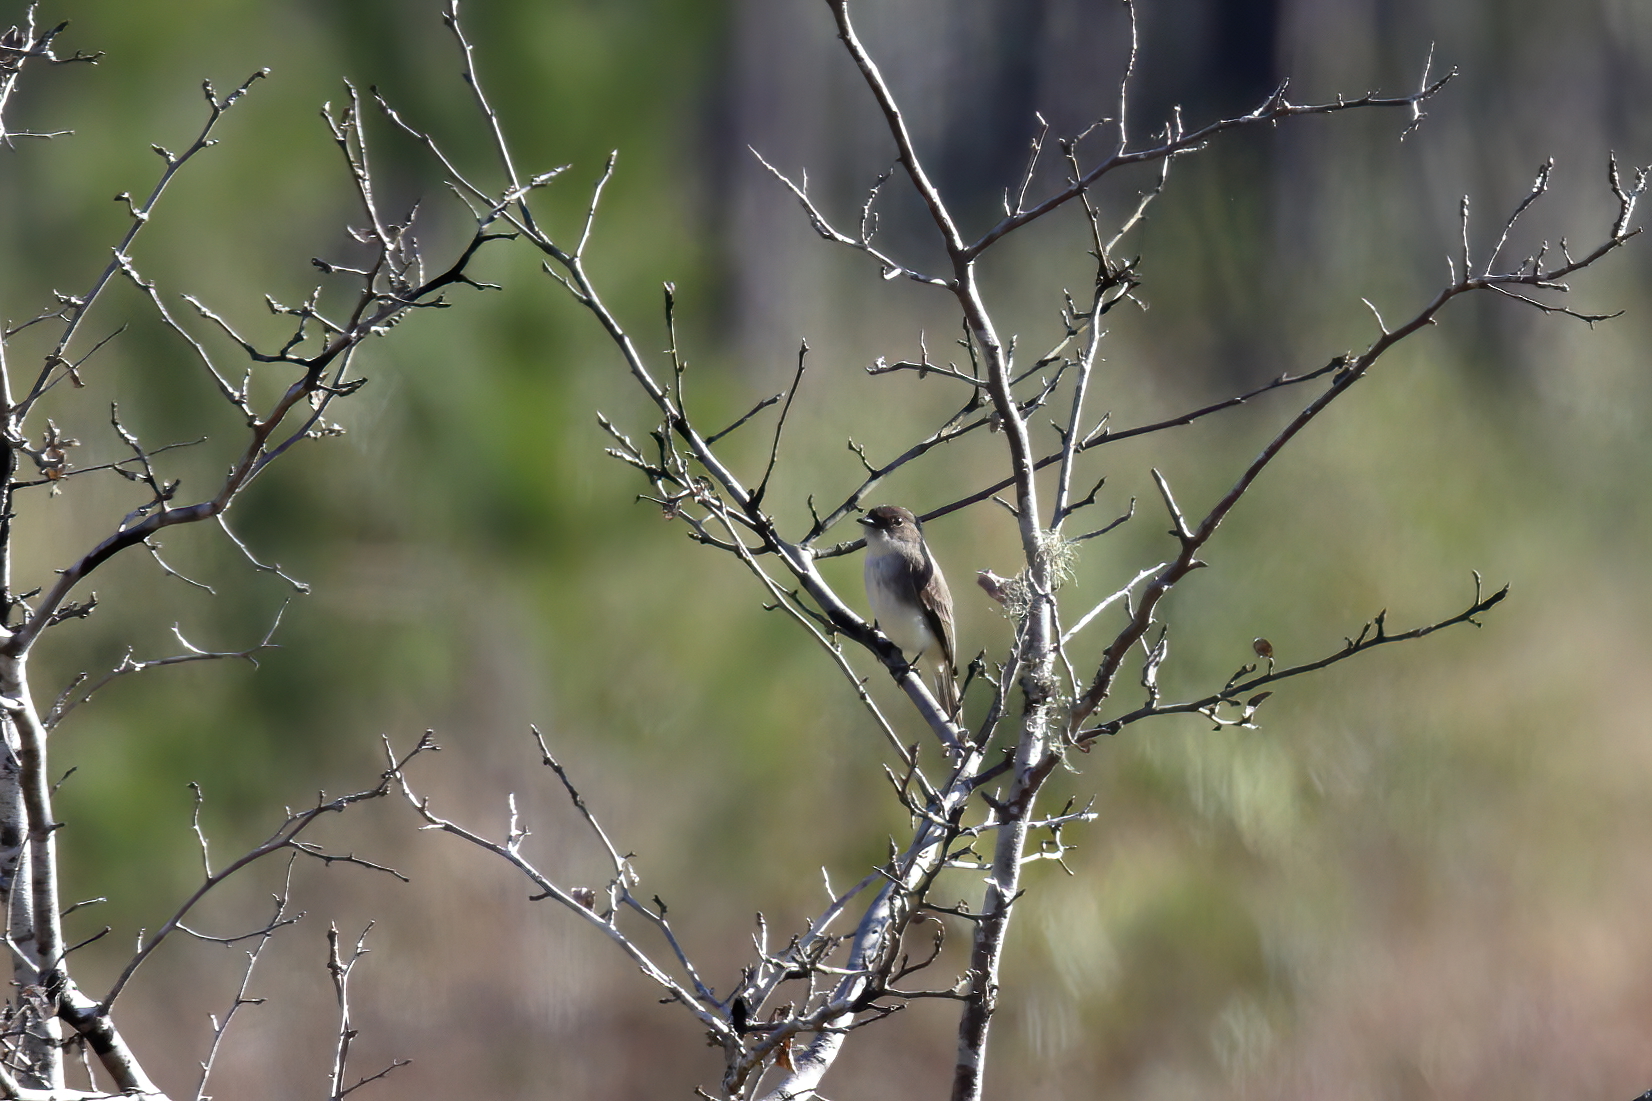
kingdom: Animalia
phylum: Chordata
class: Aves
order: Passeriformes
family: Tyrannidae
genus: Sayornis
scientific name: Sayornis phoebe
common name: Eastern phoebe
